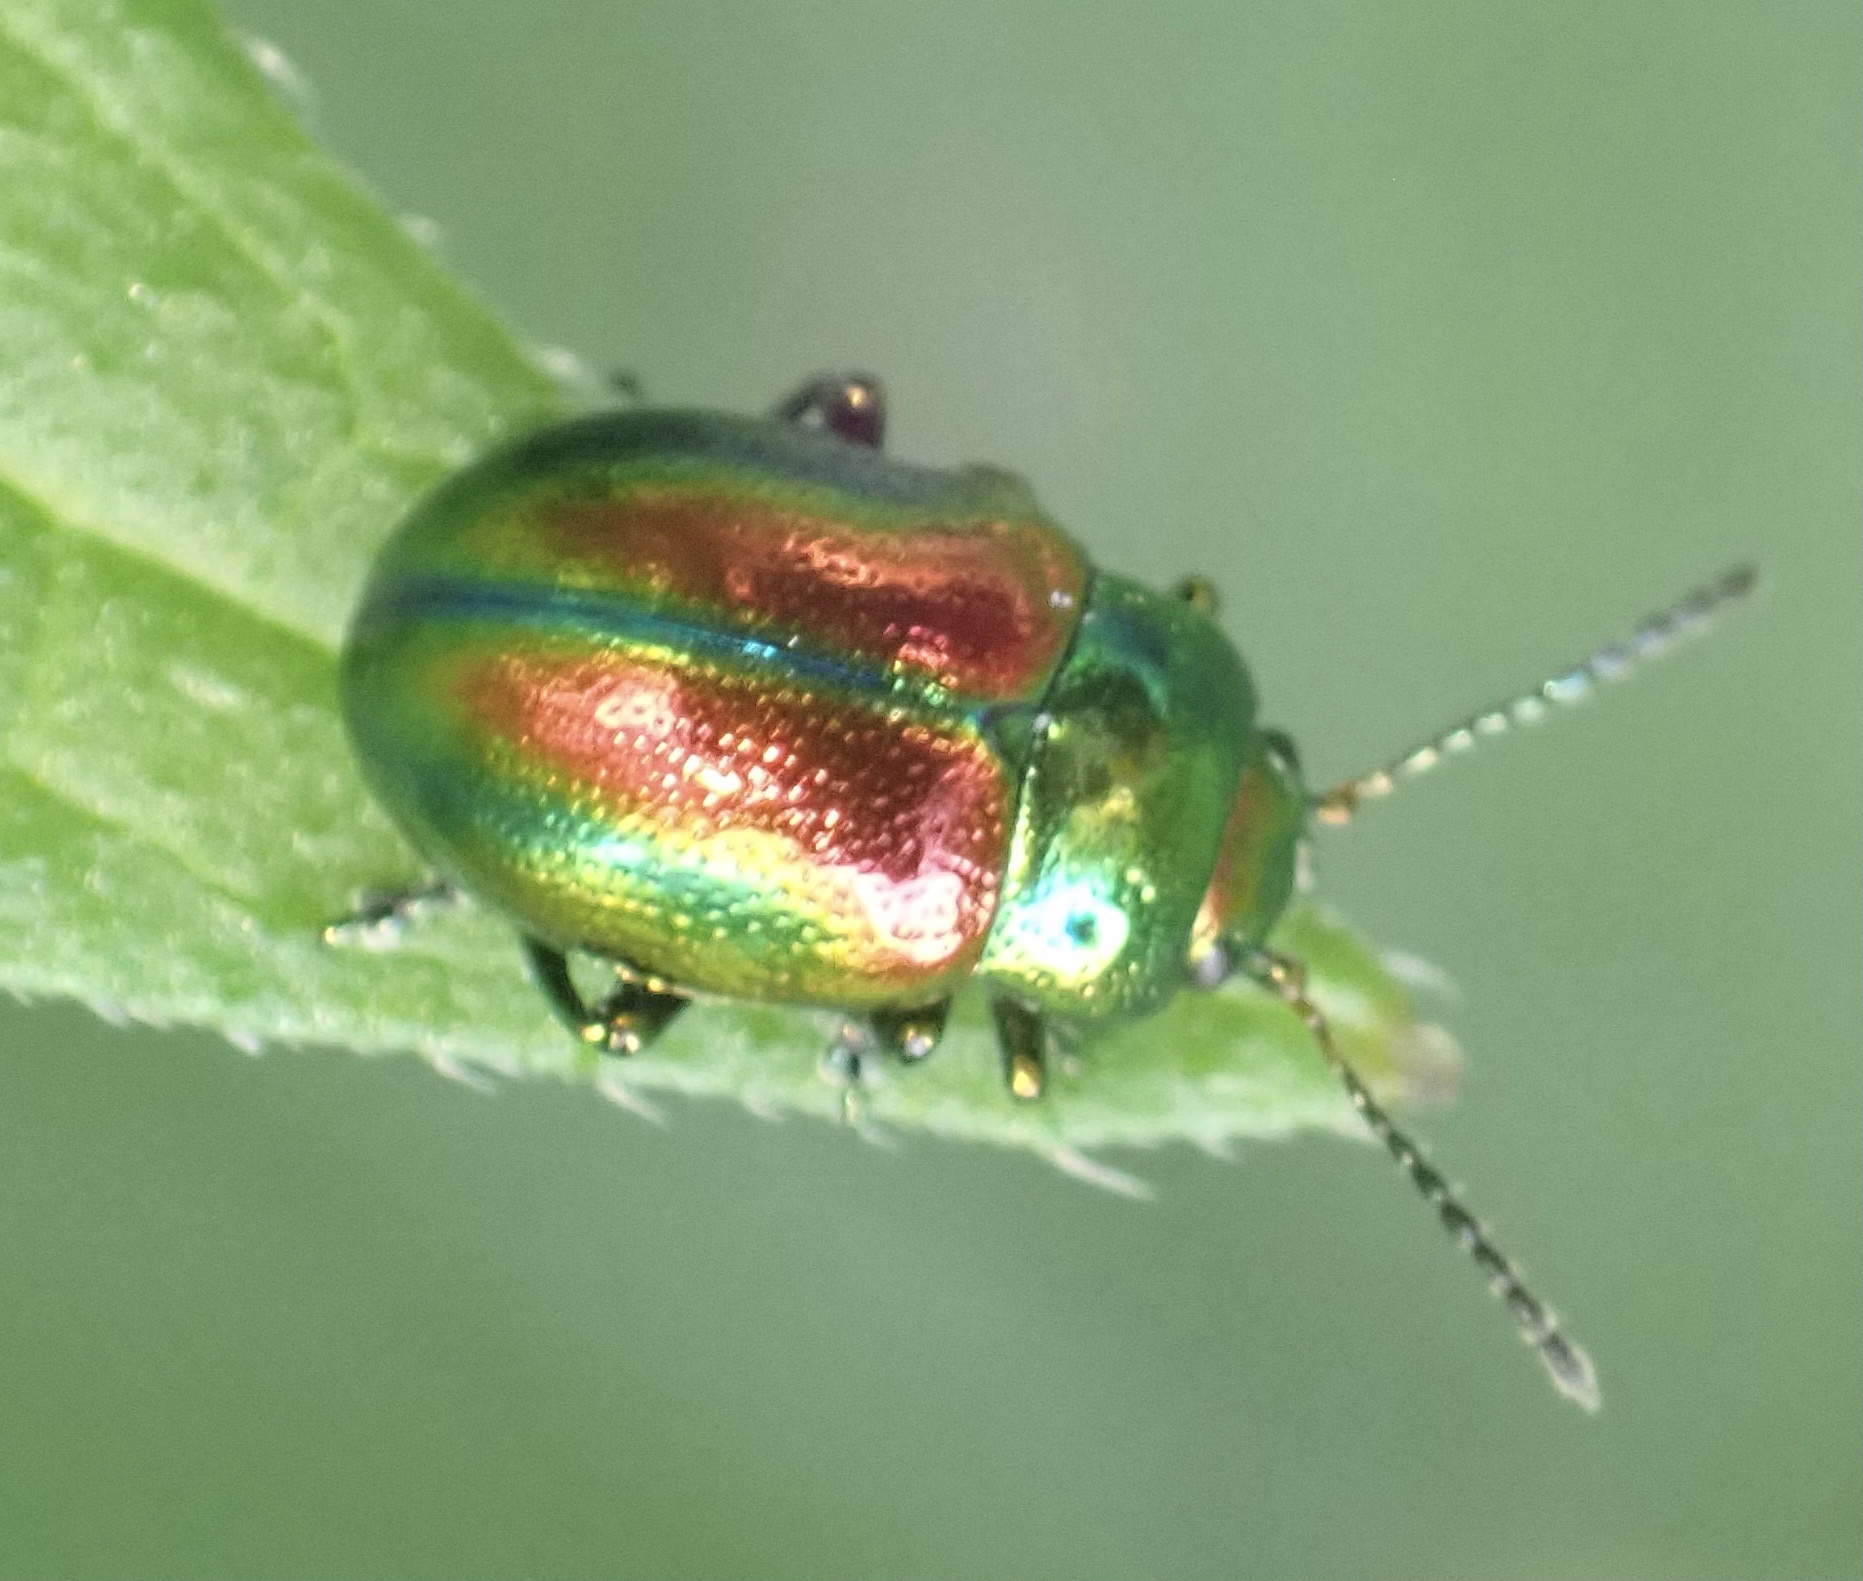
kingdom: Animalia
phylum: Arthropoda
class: Insecta
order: Coleoptera
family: Chrysomelidae
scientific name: Chrysomelidae
